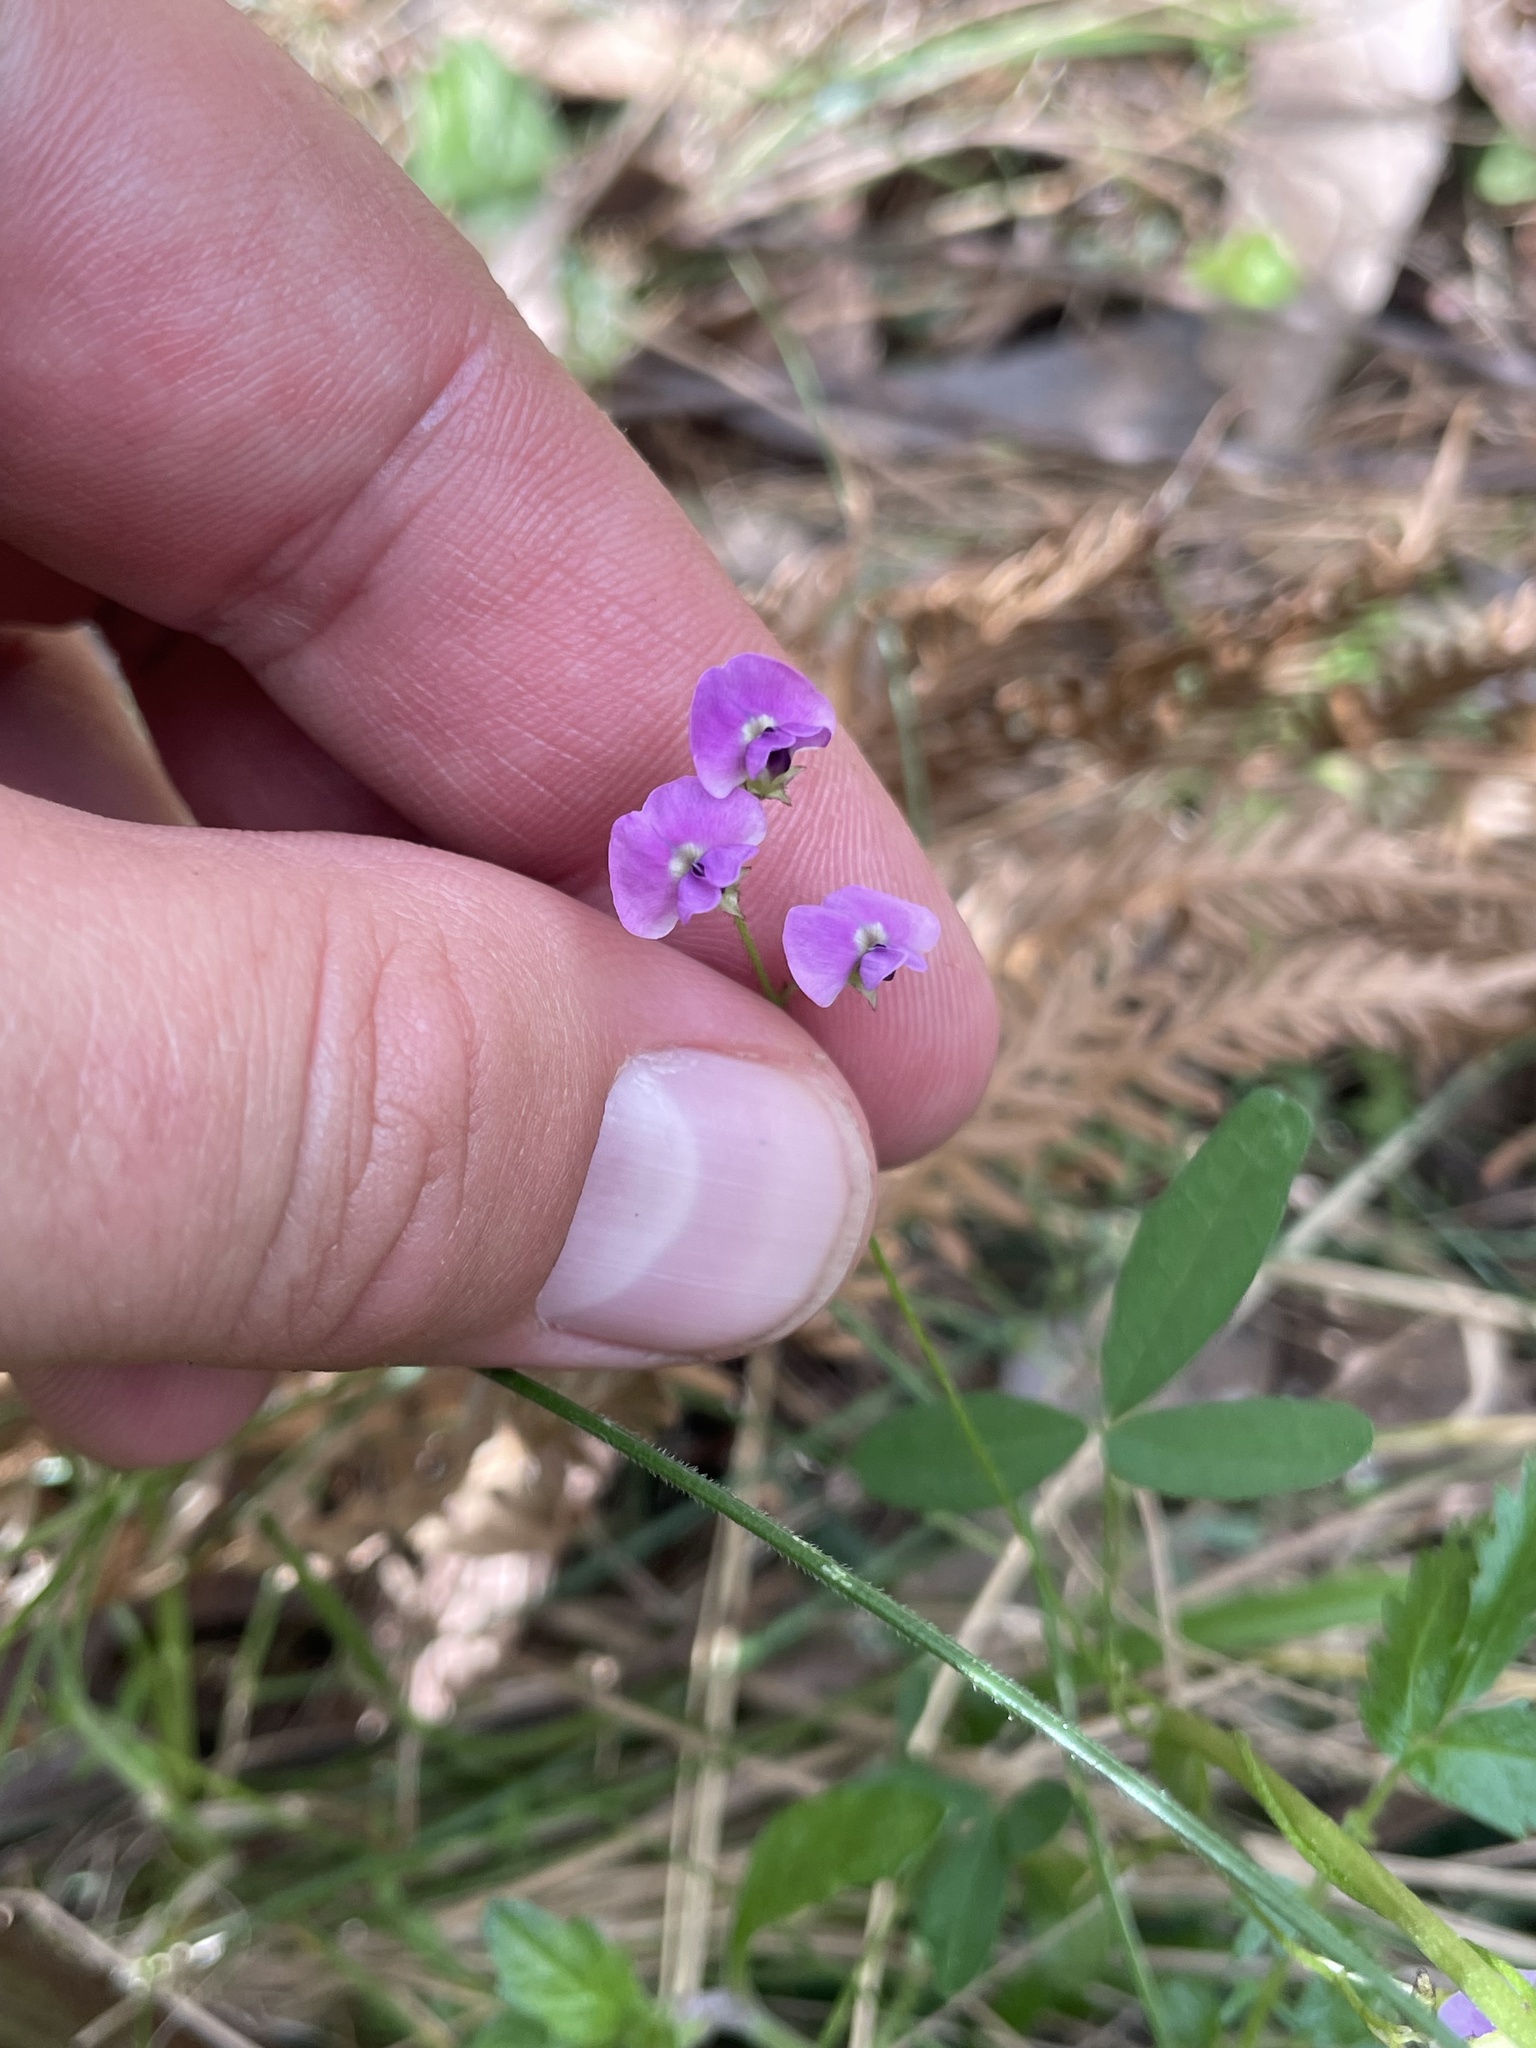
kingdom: Plantae
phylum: Tracheophyta
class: Magnoliopsida
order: Fabales
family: Fabaceae
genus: Glycine
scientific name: Glycine clandestina
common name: Twining glycine
